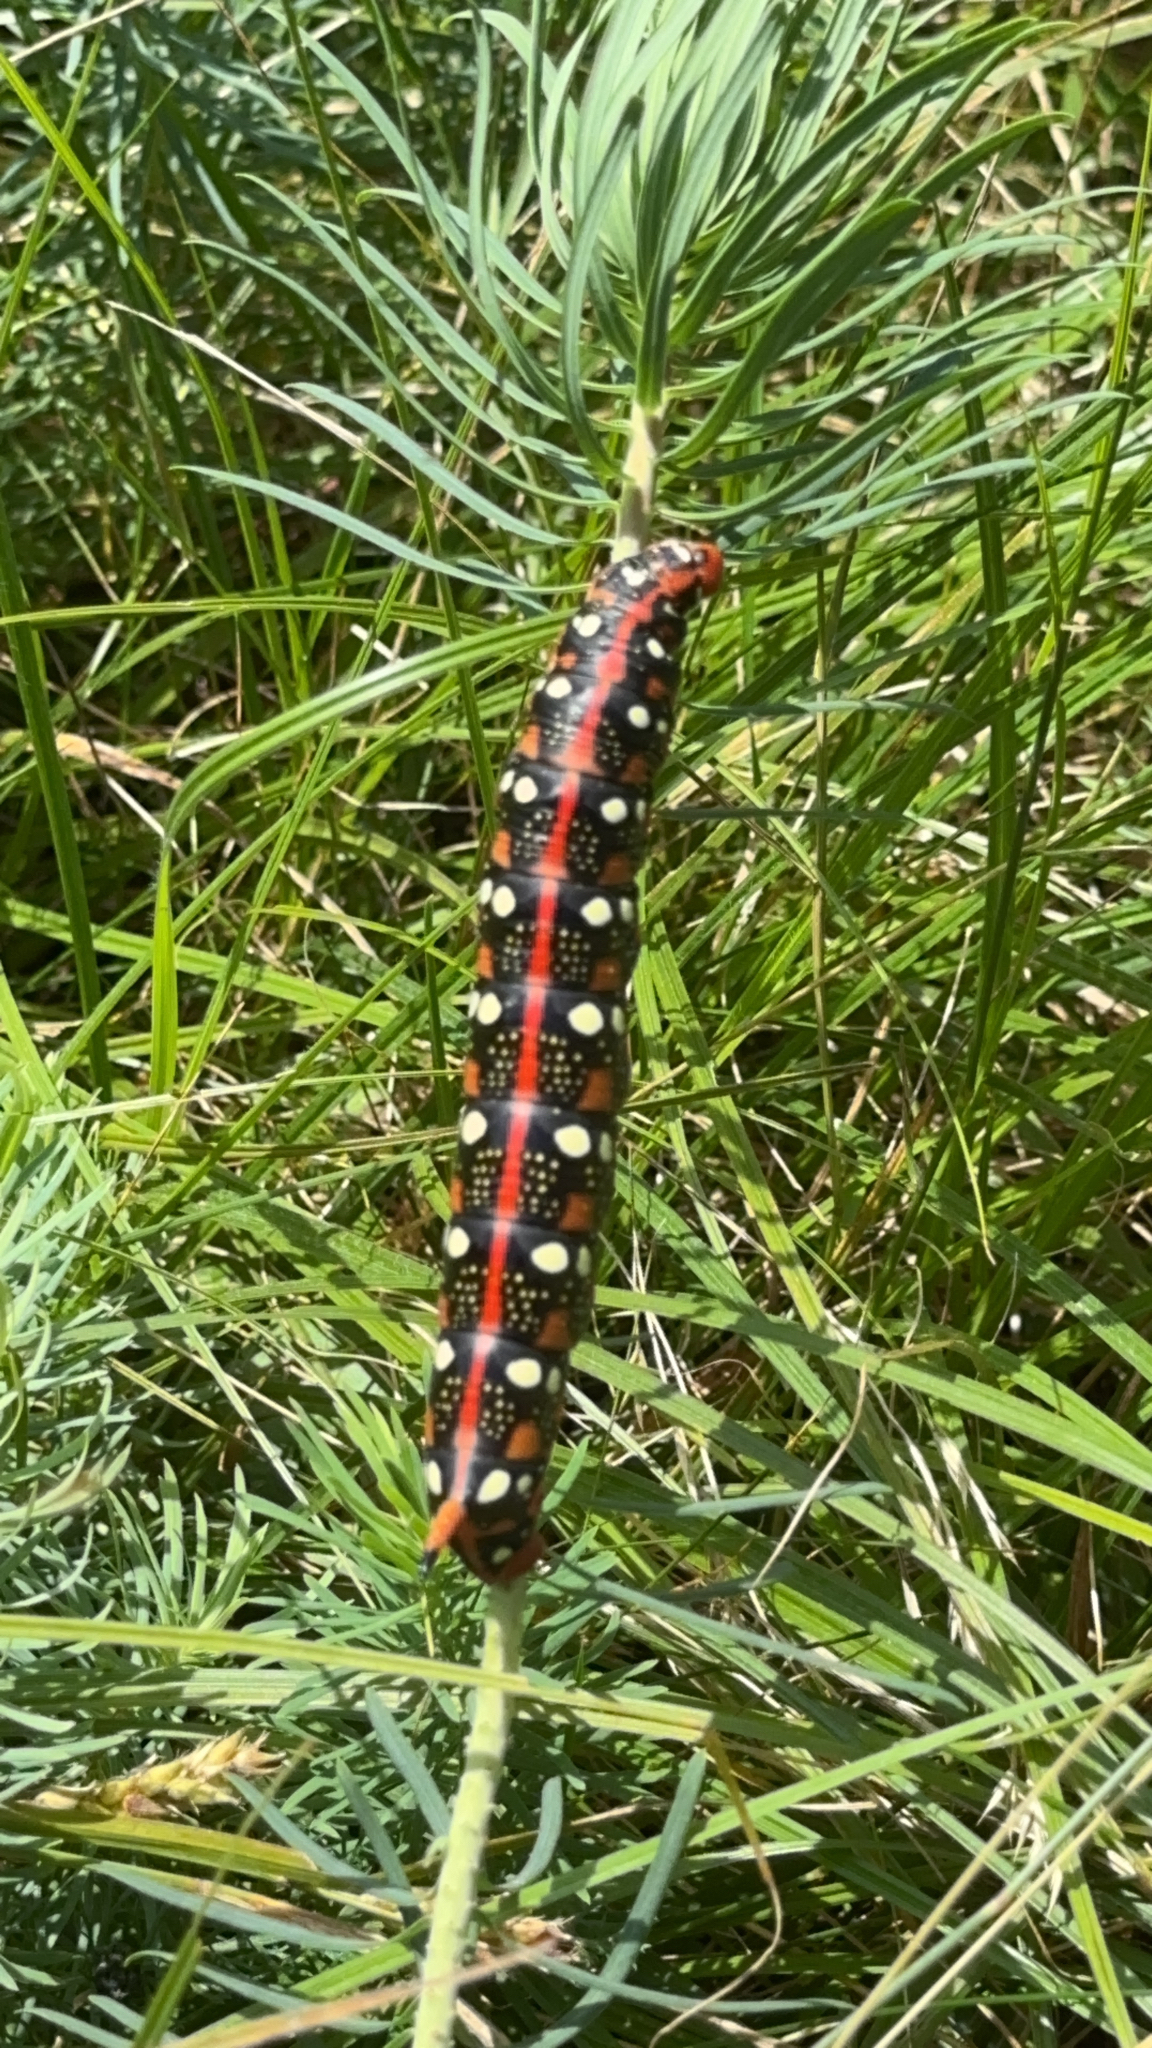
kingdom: Animalia
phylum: Arthropoda
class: Insecta
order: Lepidoptera
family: Sphingidae
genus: Hyles
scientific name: Hyles euphorbiae
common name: Spurge hawk-moth
